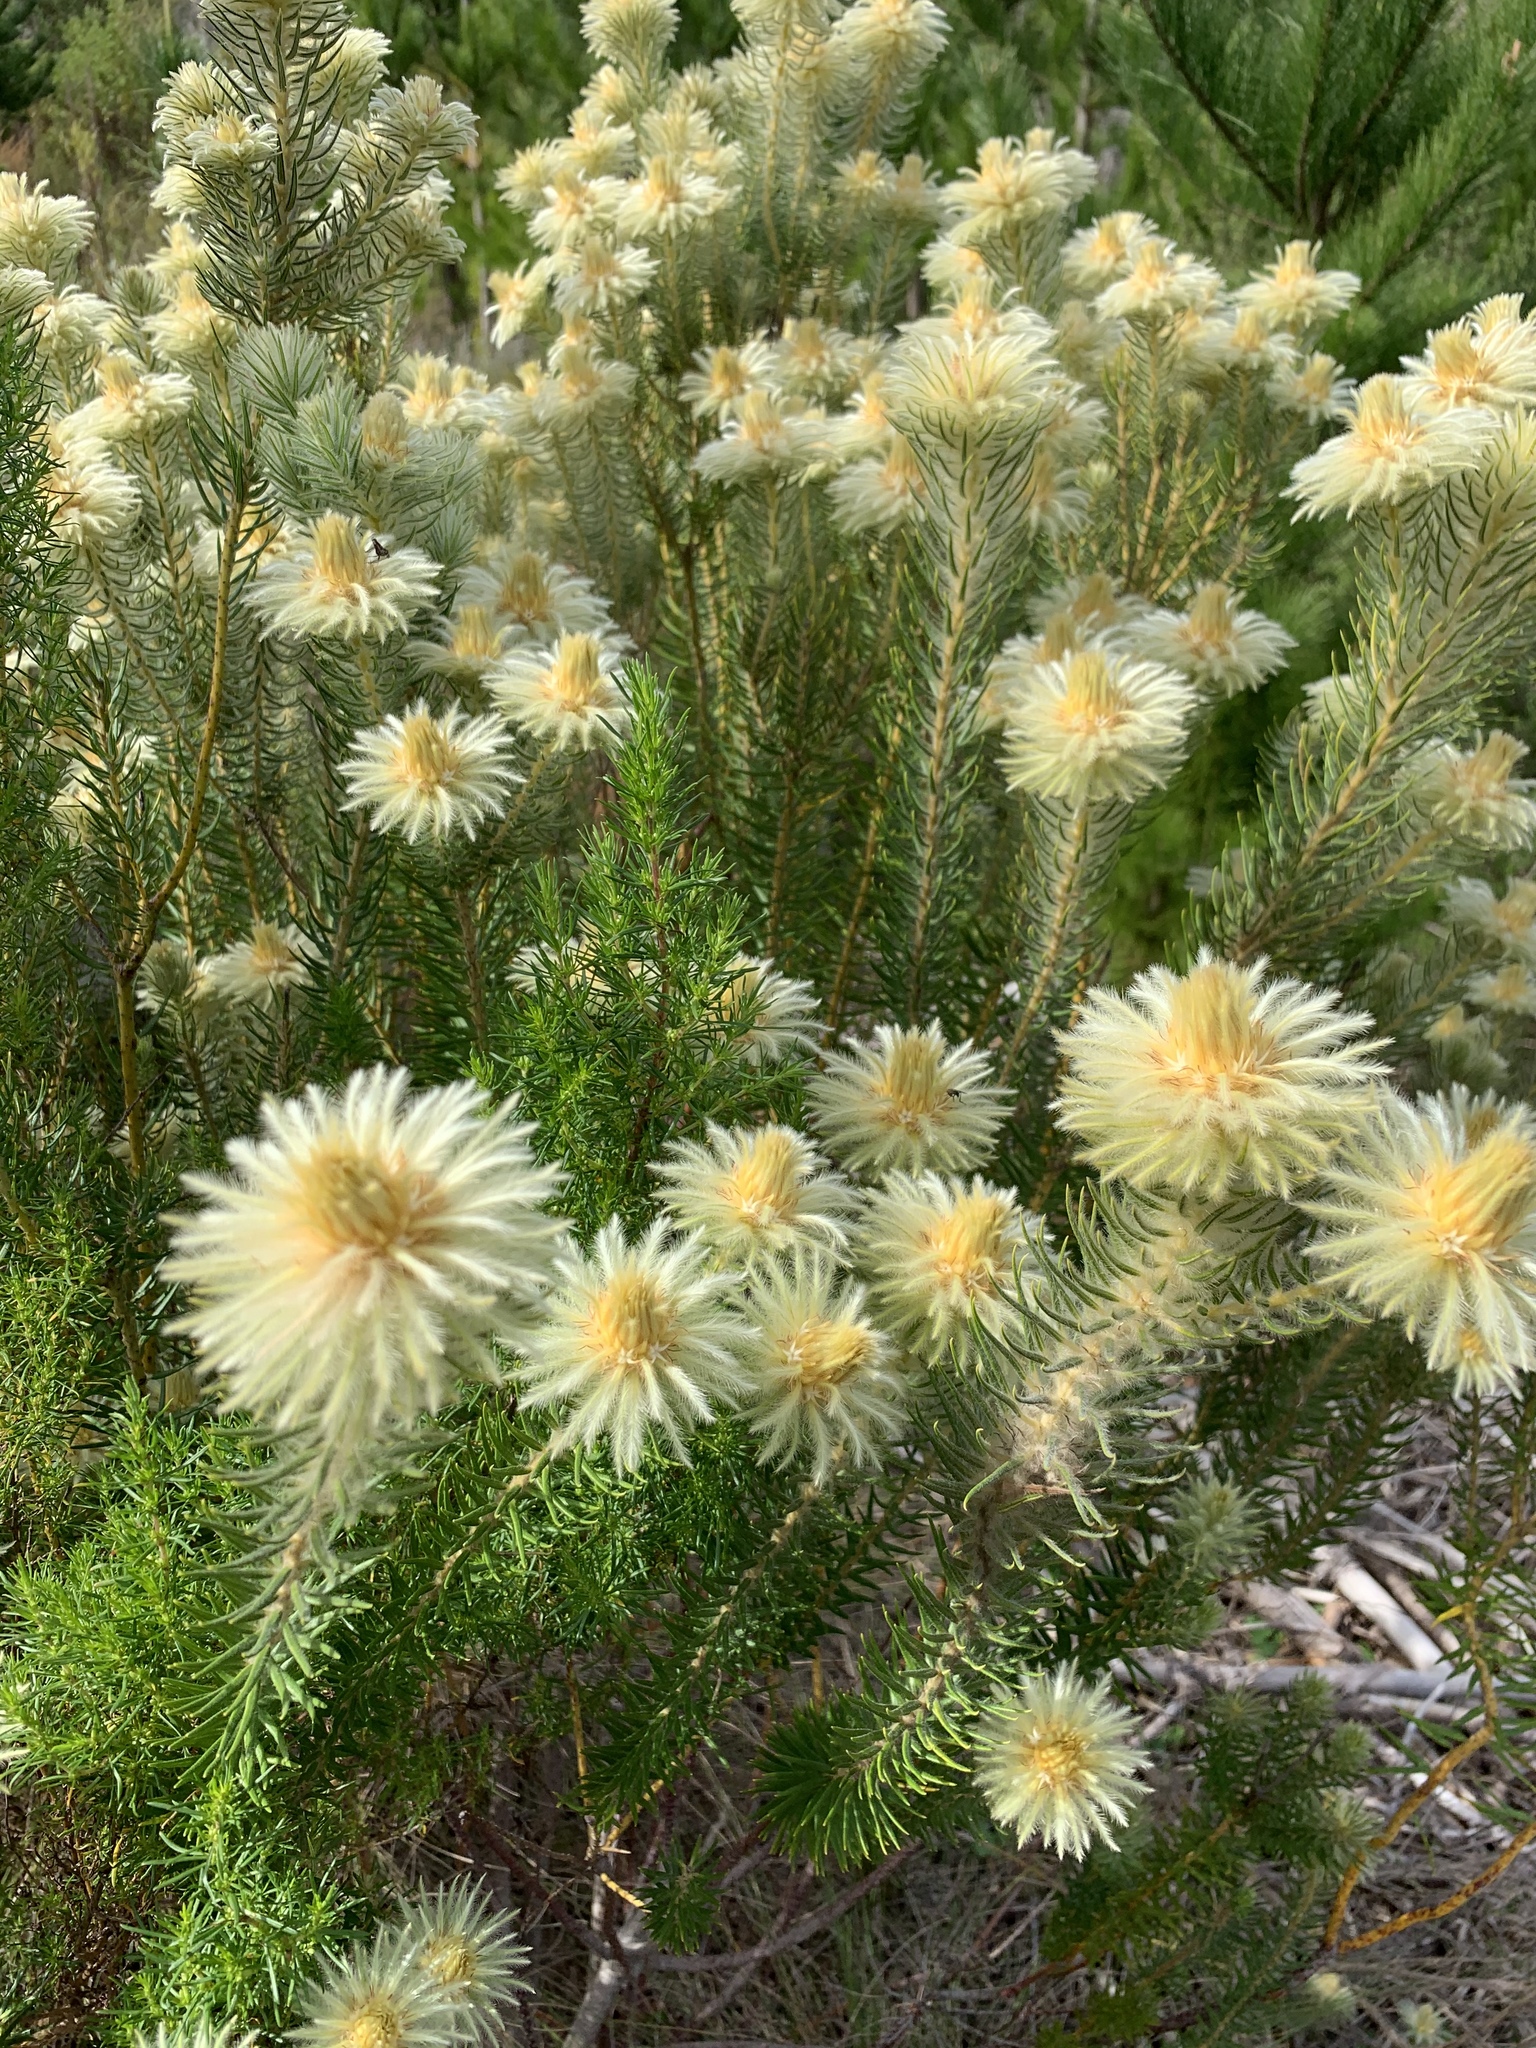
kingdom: Plantae
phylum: Tracheophyta
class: Magnoliopsida
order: Rosales
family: Rhamnaceae
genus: Phylica
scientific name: Phylica pubescens
